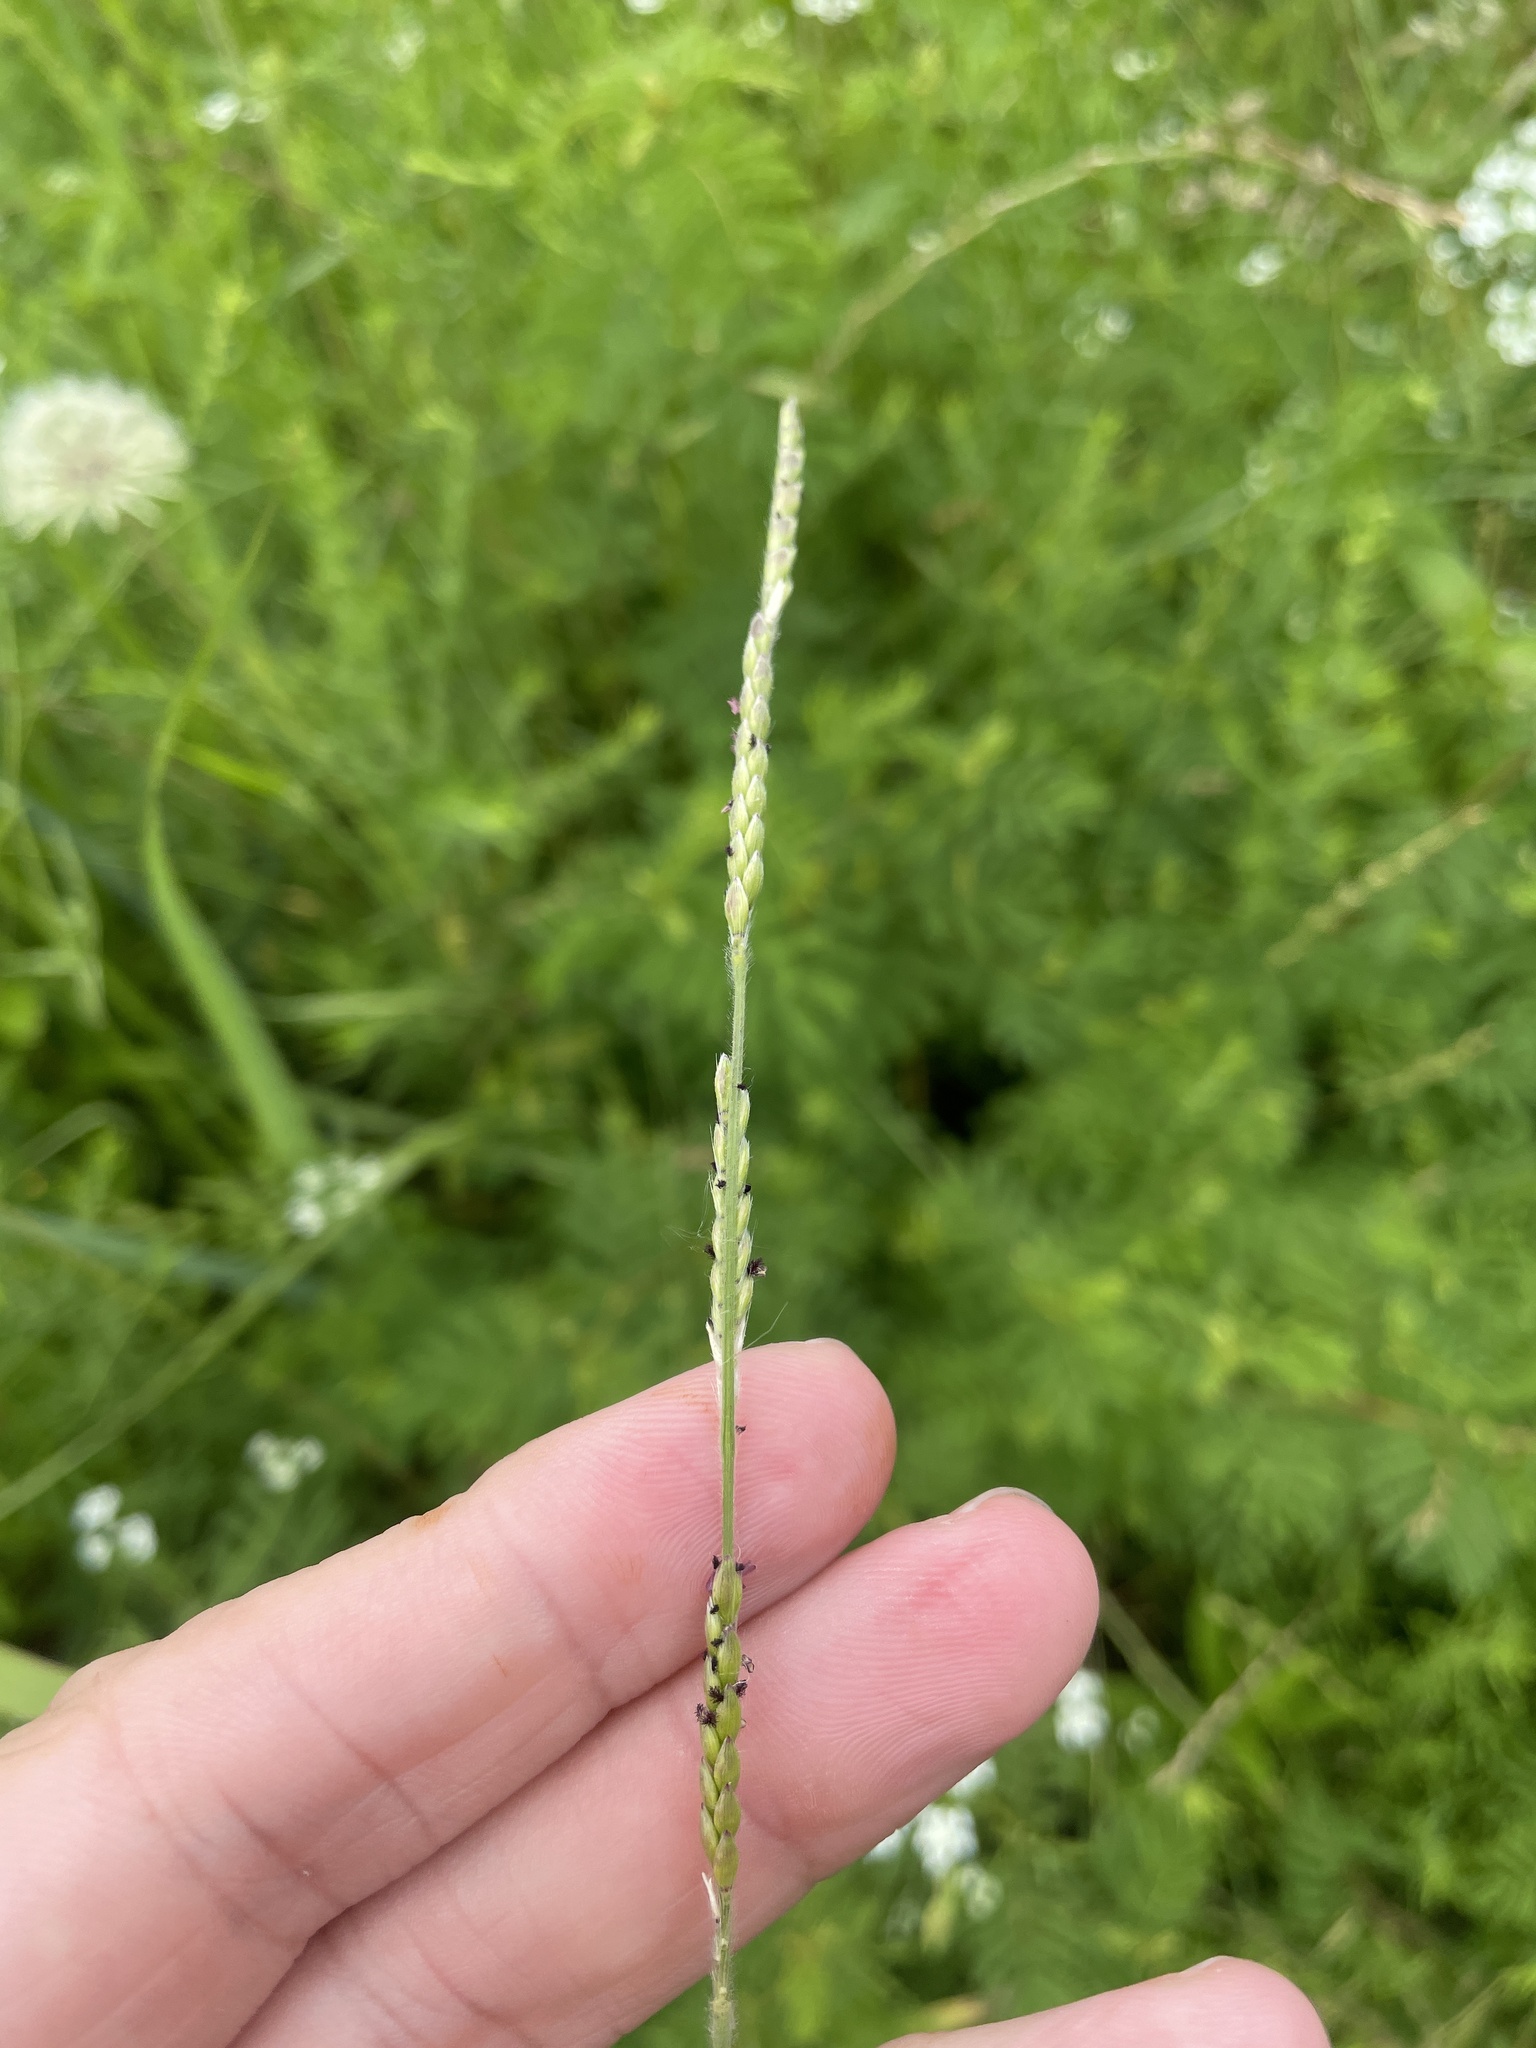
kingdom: Plantae
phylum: Tracheophyta
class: Liliopsida
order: Poales
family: Poaceae
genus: Eriochloa
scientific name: Eriochloa sericea
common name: Texas cup grass
